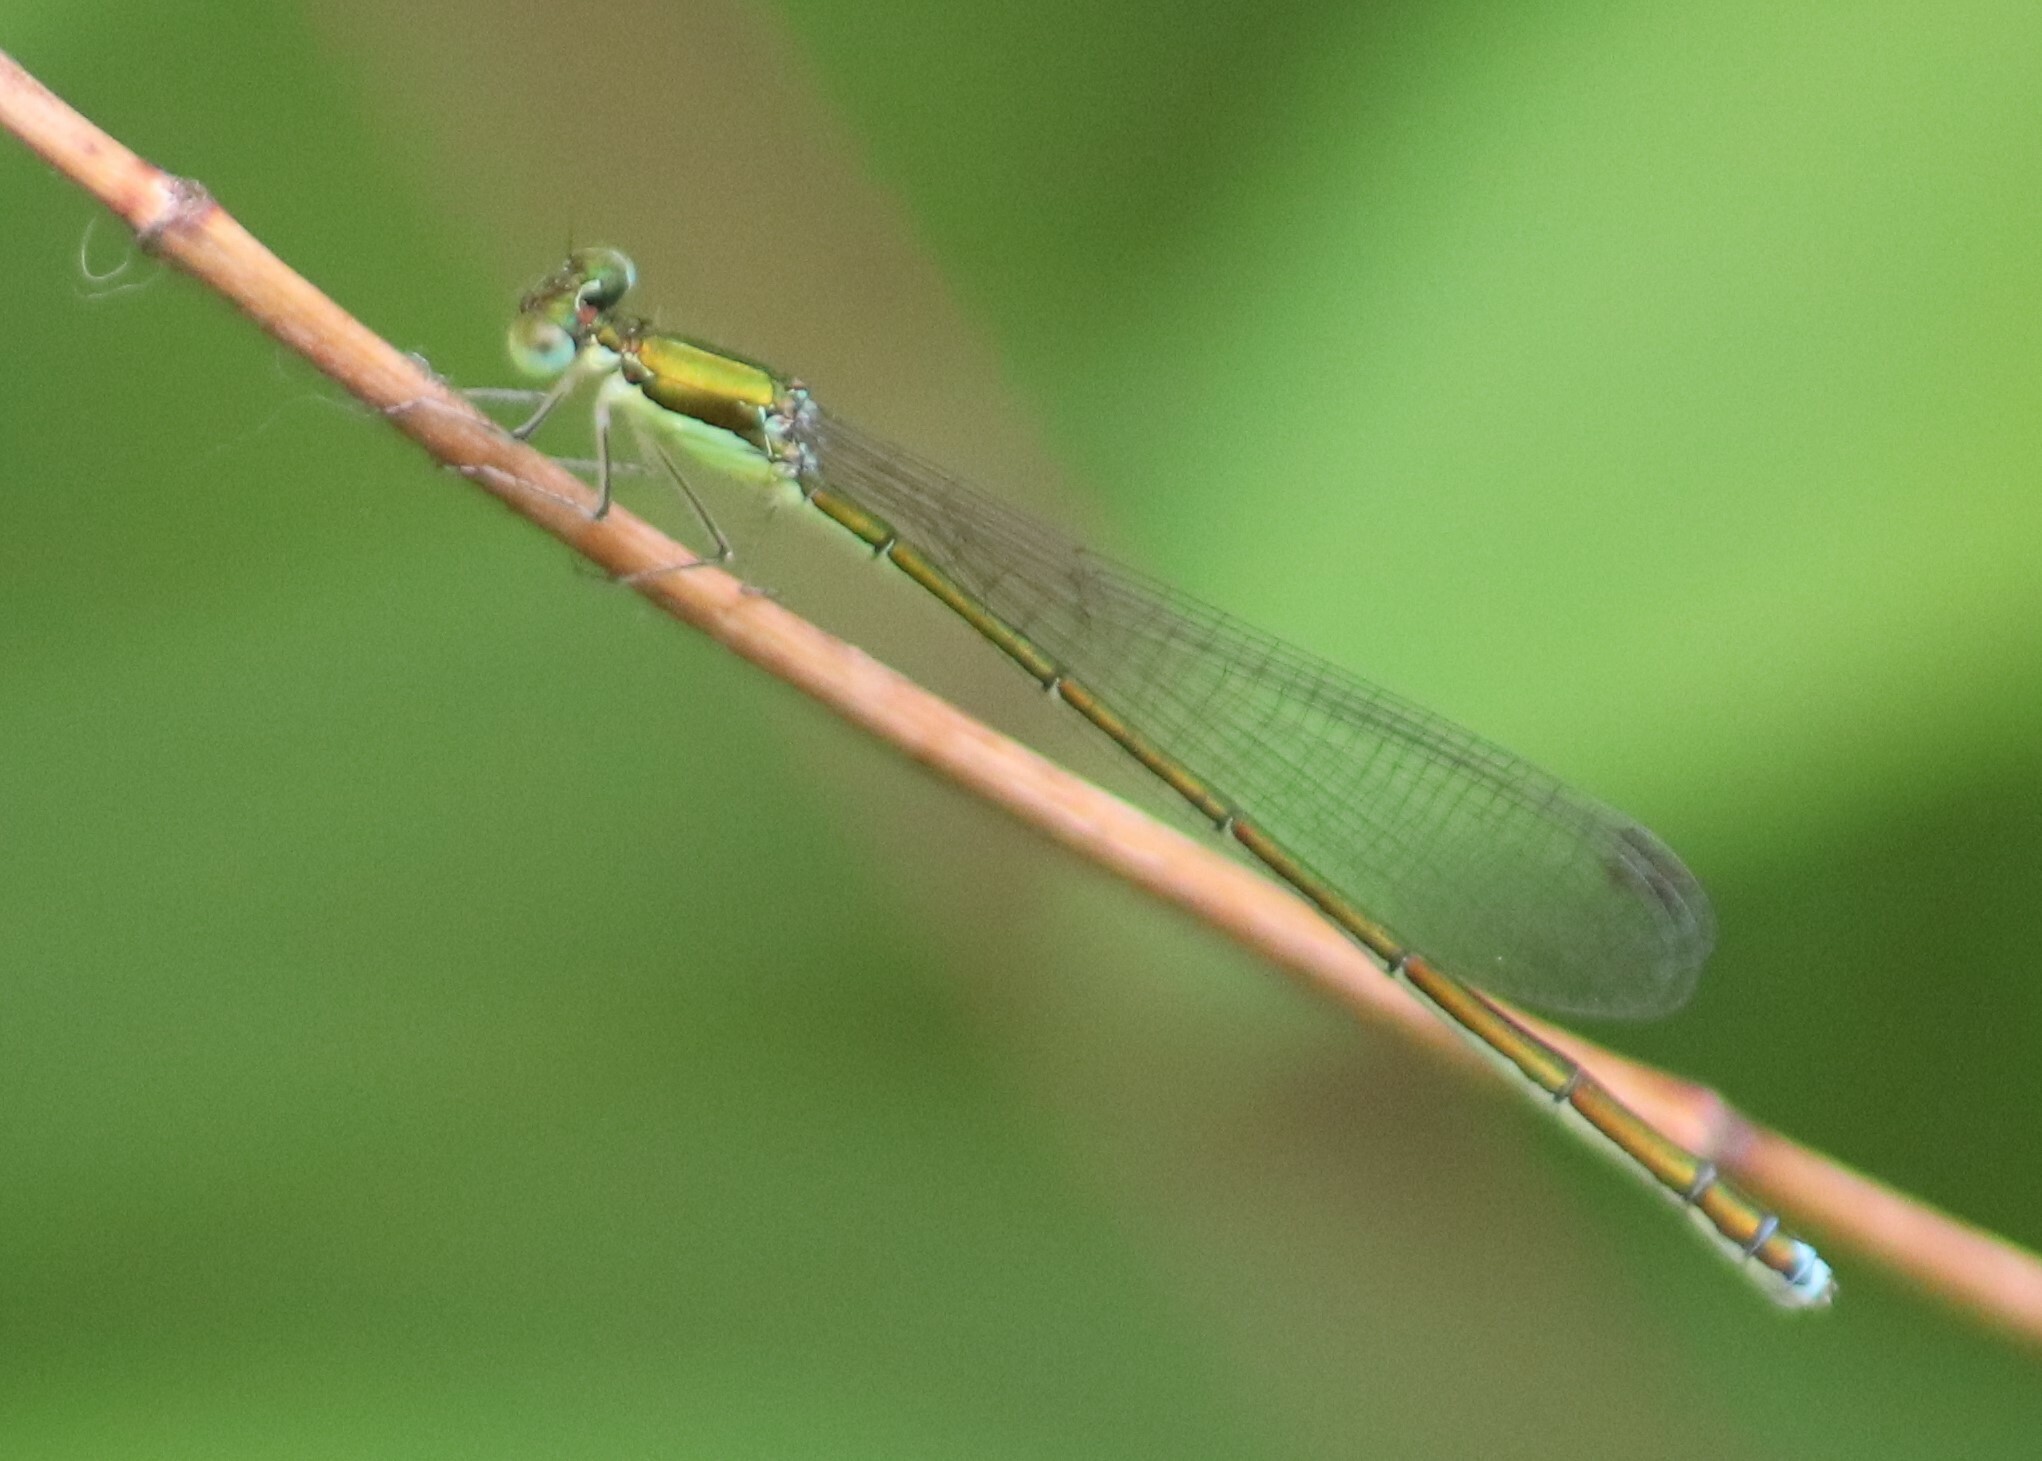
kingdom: Animalia
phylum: Arthropoda
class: Insecta
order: Odonata
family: Coenagrionidae
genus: Nehalennia
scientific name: Nehalennia irene
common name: Sedge sprite
